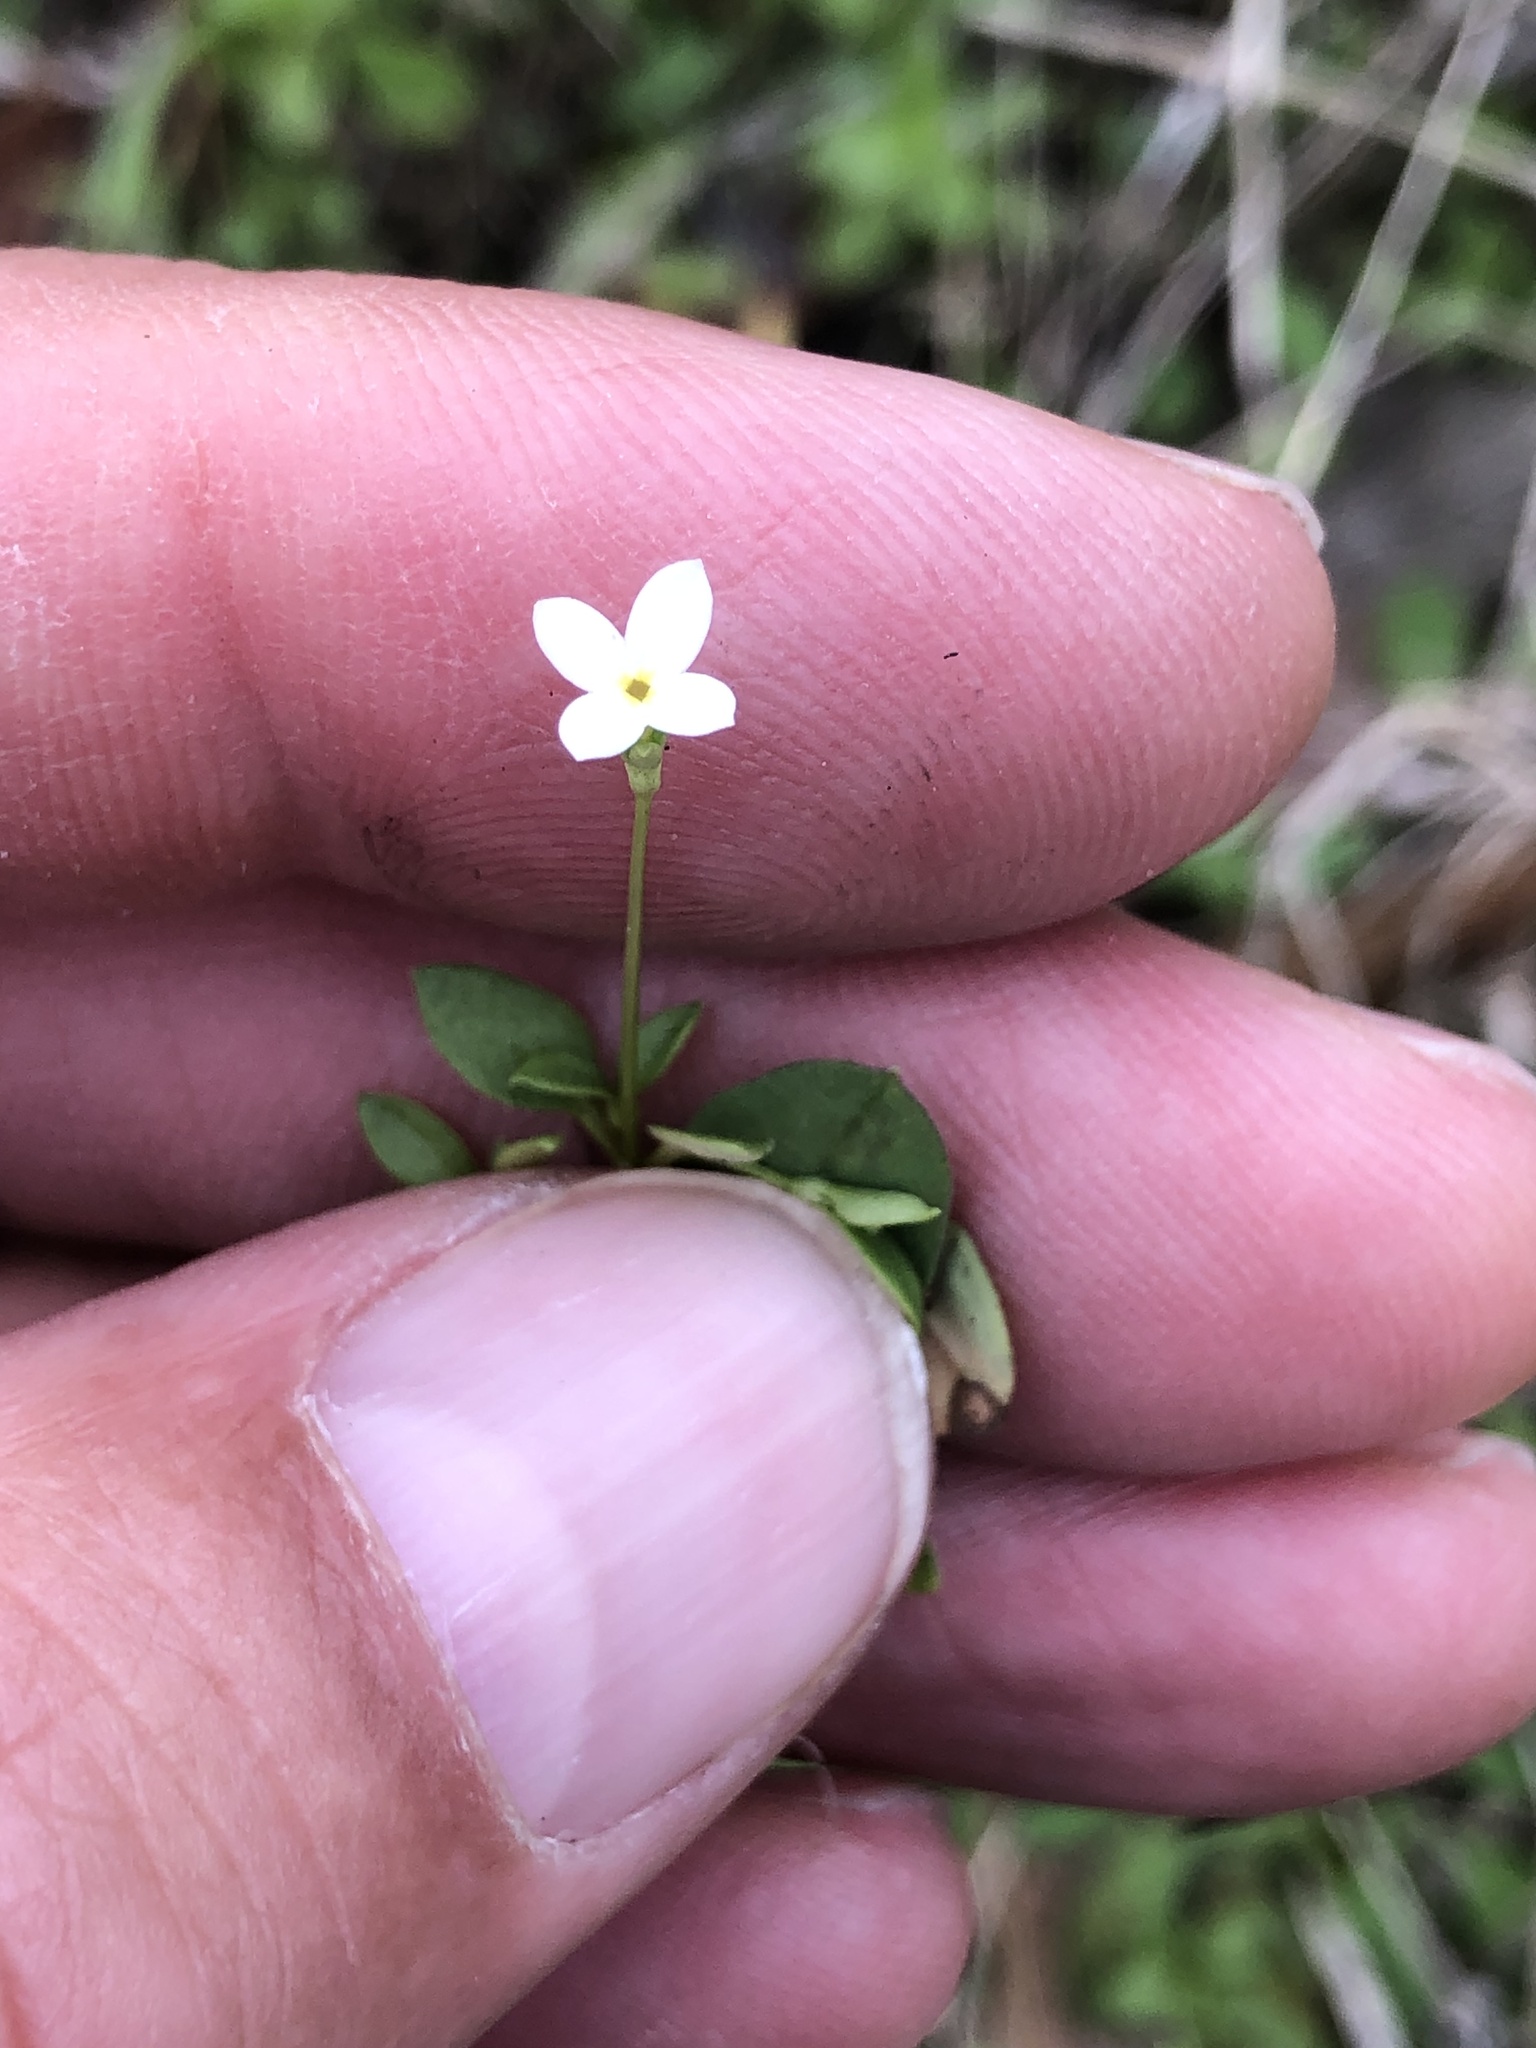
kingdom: Plantae
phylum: Tracheophyta
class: Magnoliopsida
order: Gentianales
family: Rubiaceae
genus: Houstonia
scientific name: Houstonia micrantha
